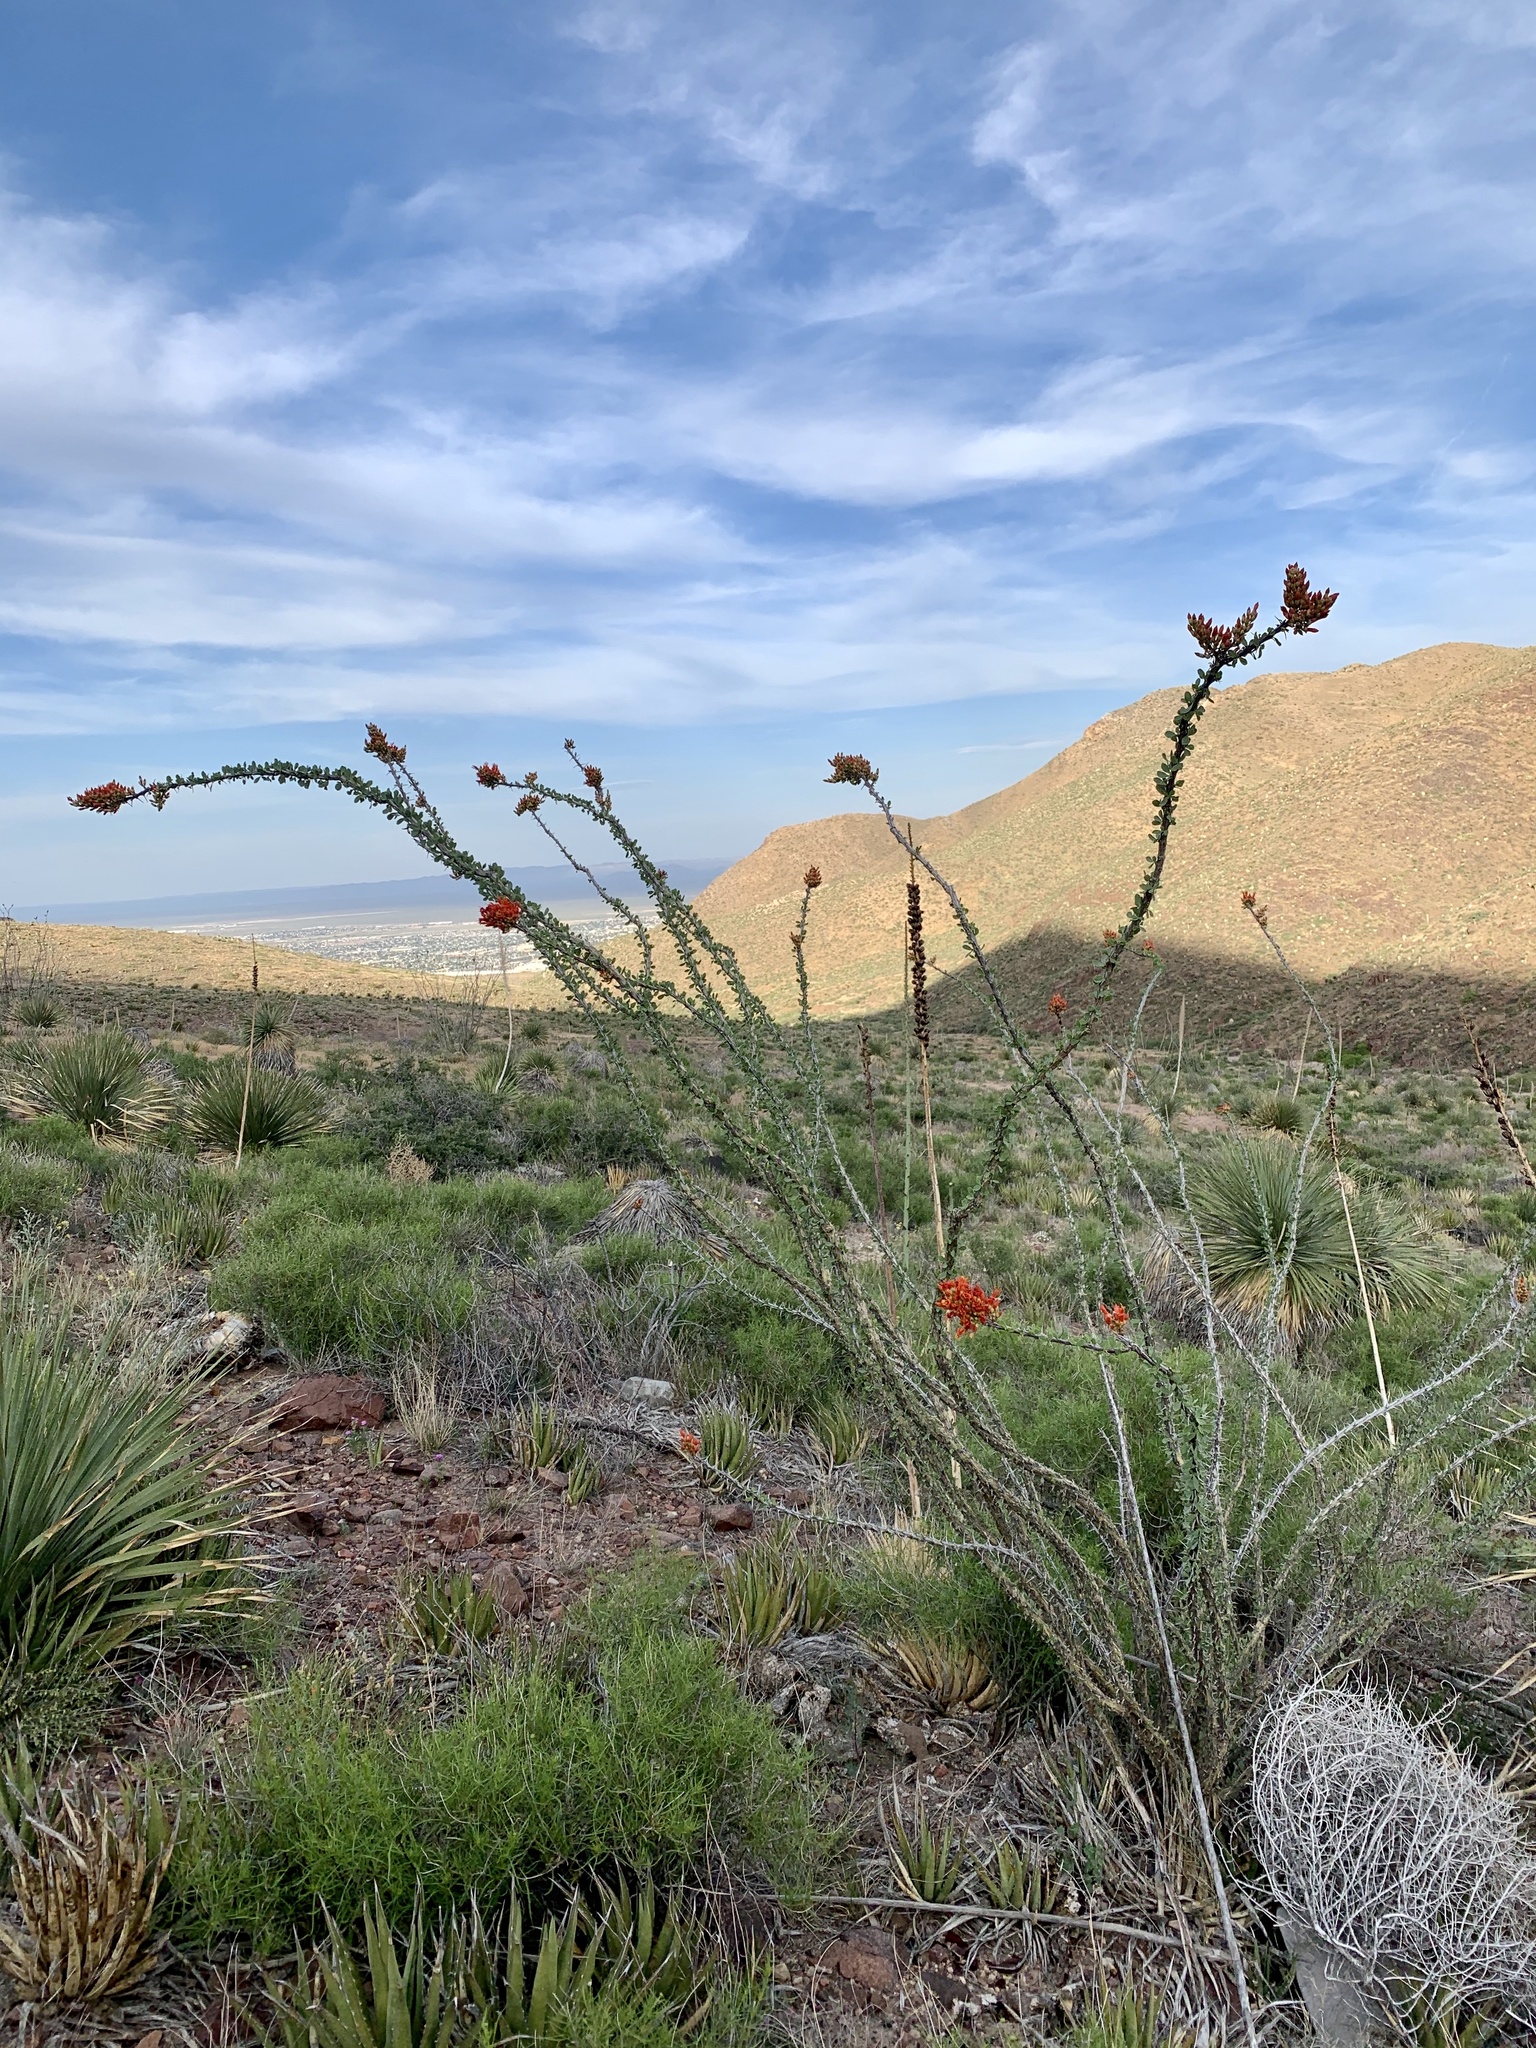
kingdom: Plantae
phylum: Tracheophyta
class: Magnoliopsida
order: Ericales
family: Fouquieriaceae
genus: Fouquieria
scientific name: Fouquieria splendens
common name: Vine-cactus
